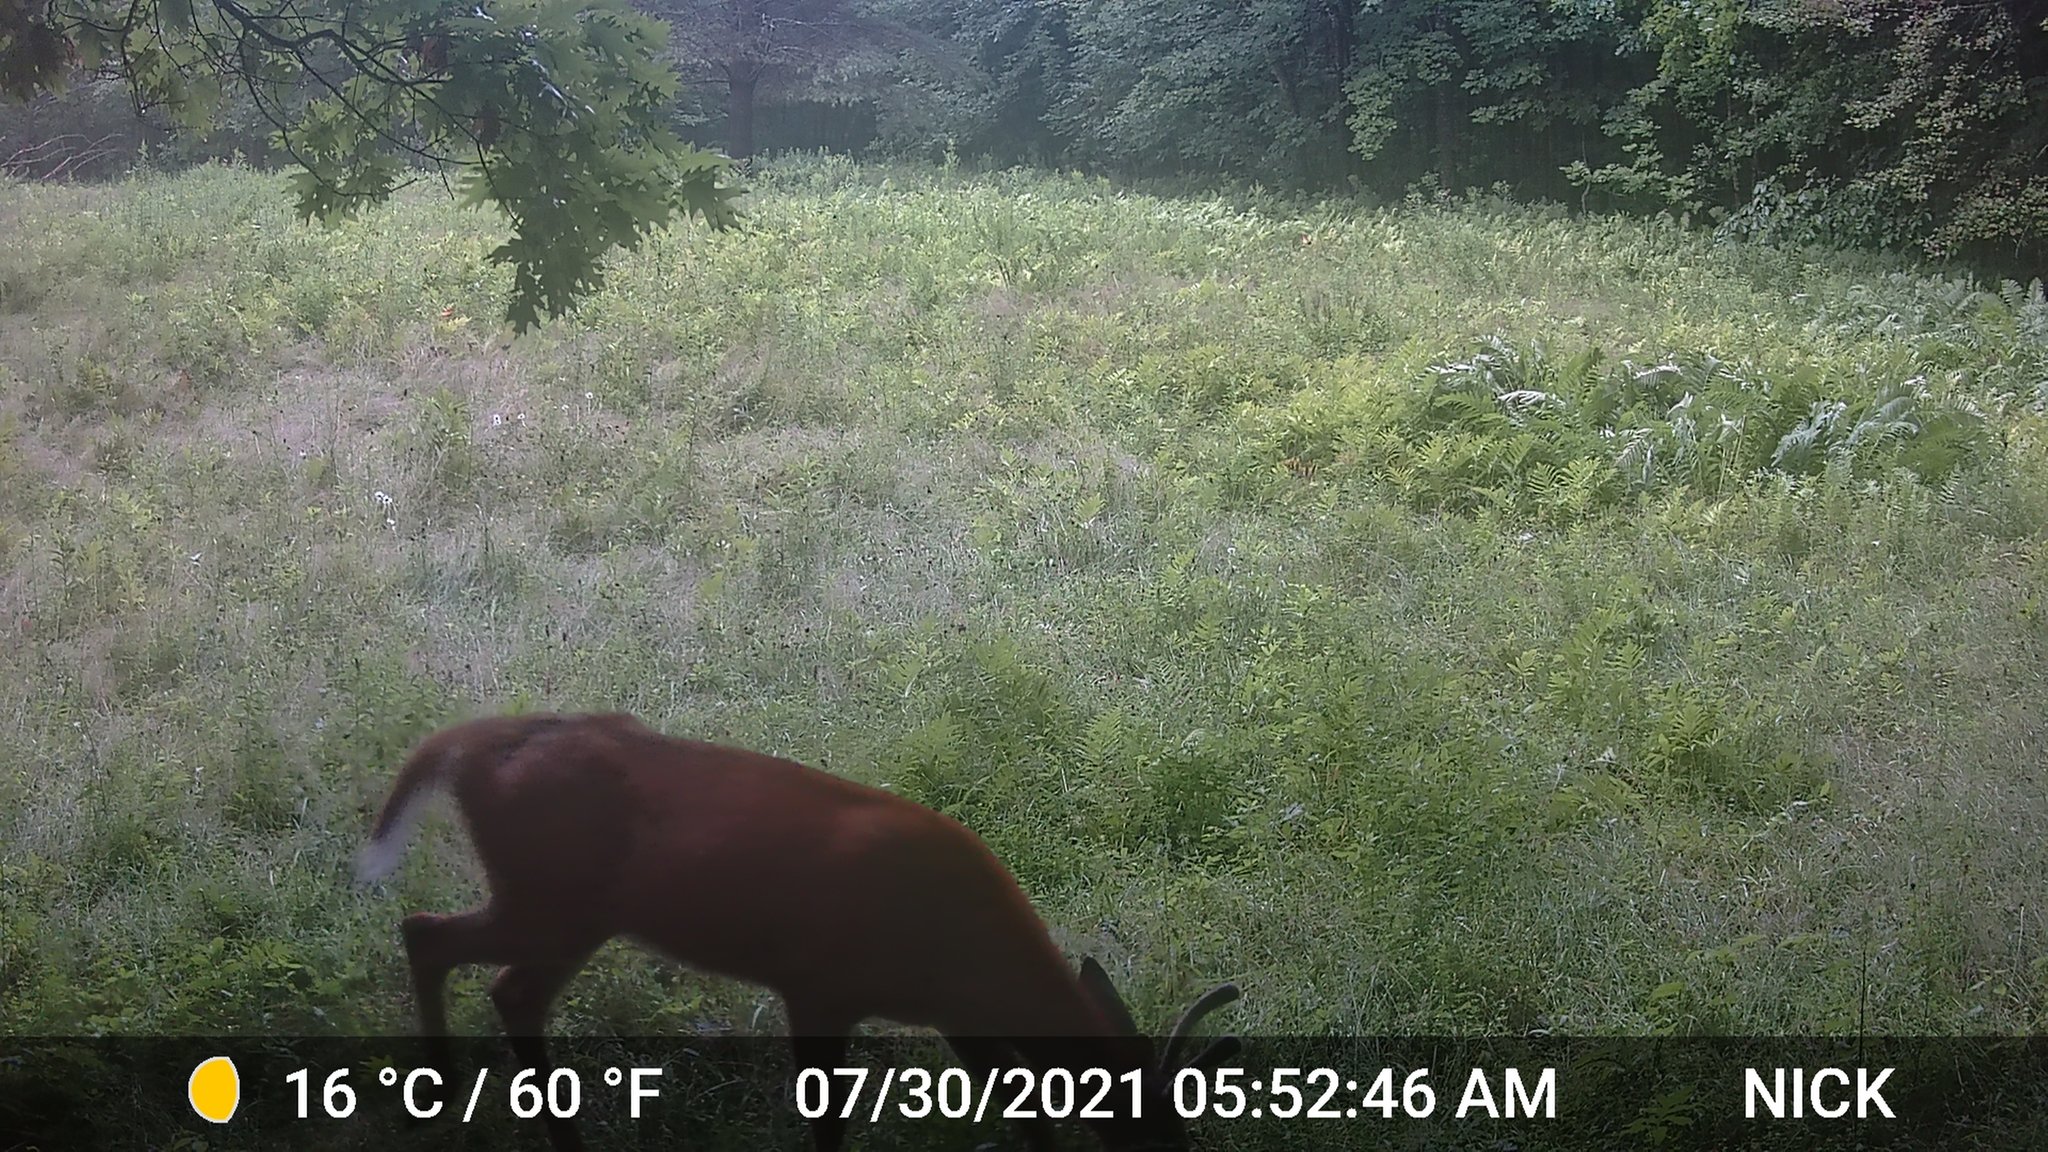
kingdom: Animalia
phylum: Chordata
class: Mammalia
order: Artiodactyla
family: Cervidae
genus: Odocoileus
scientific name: Odocoileus virginianus
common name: White-tailed deer
